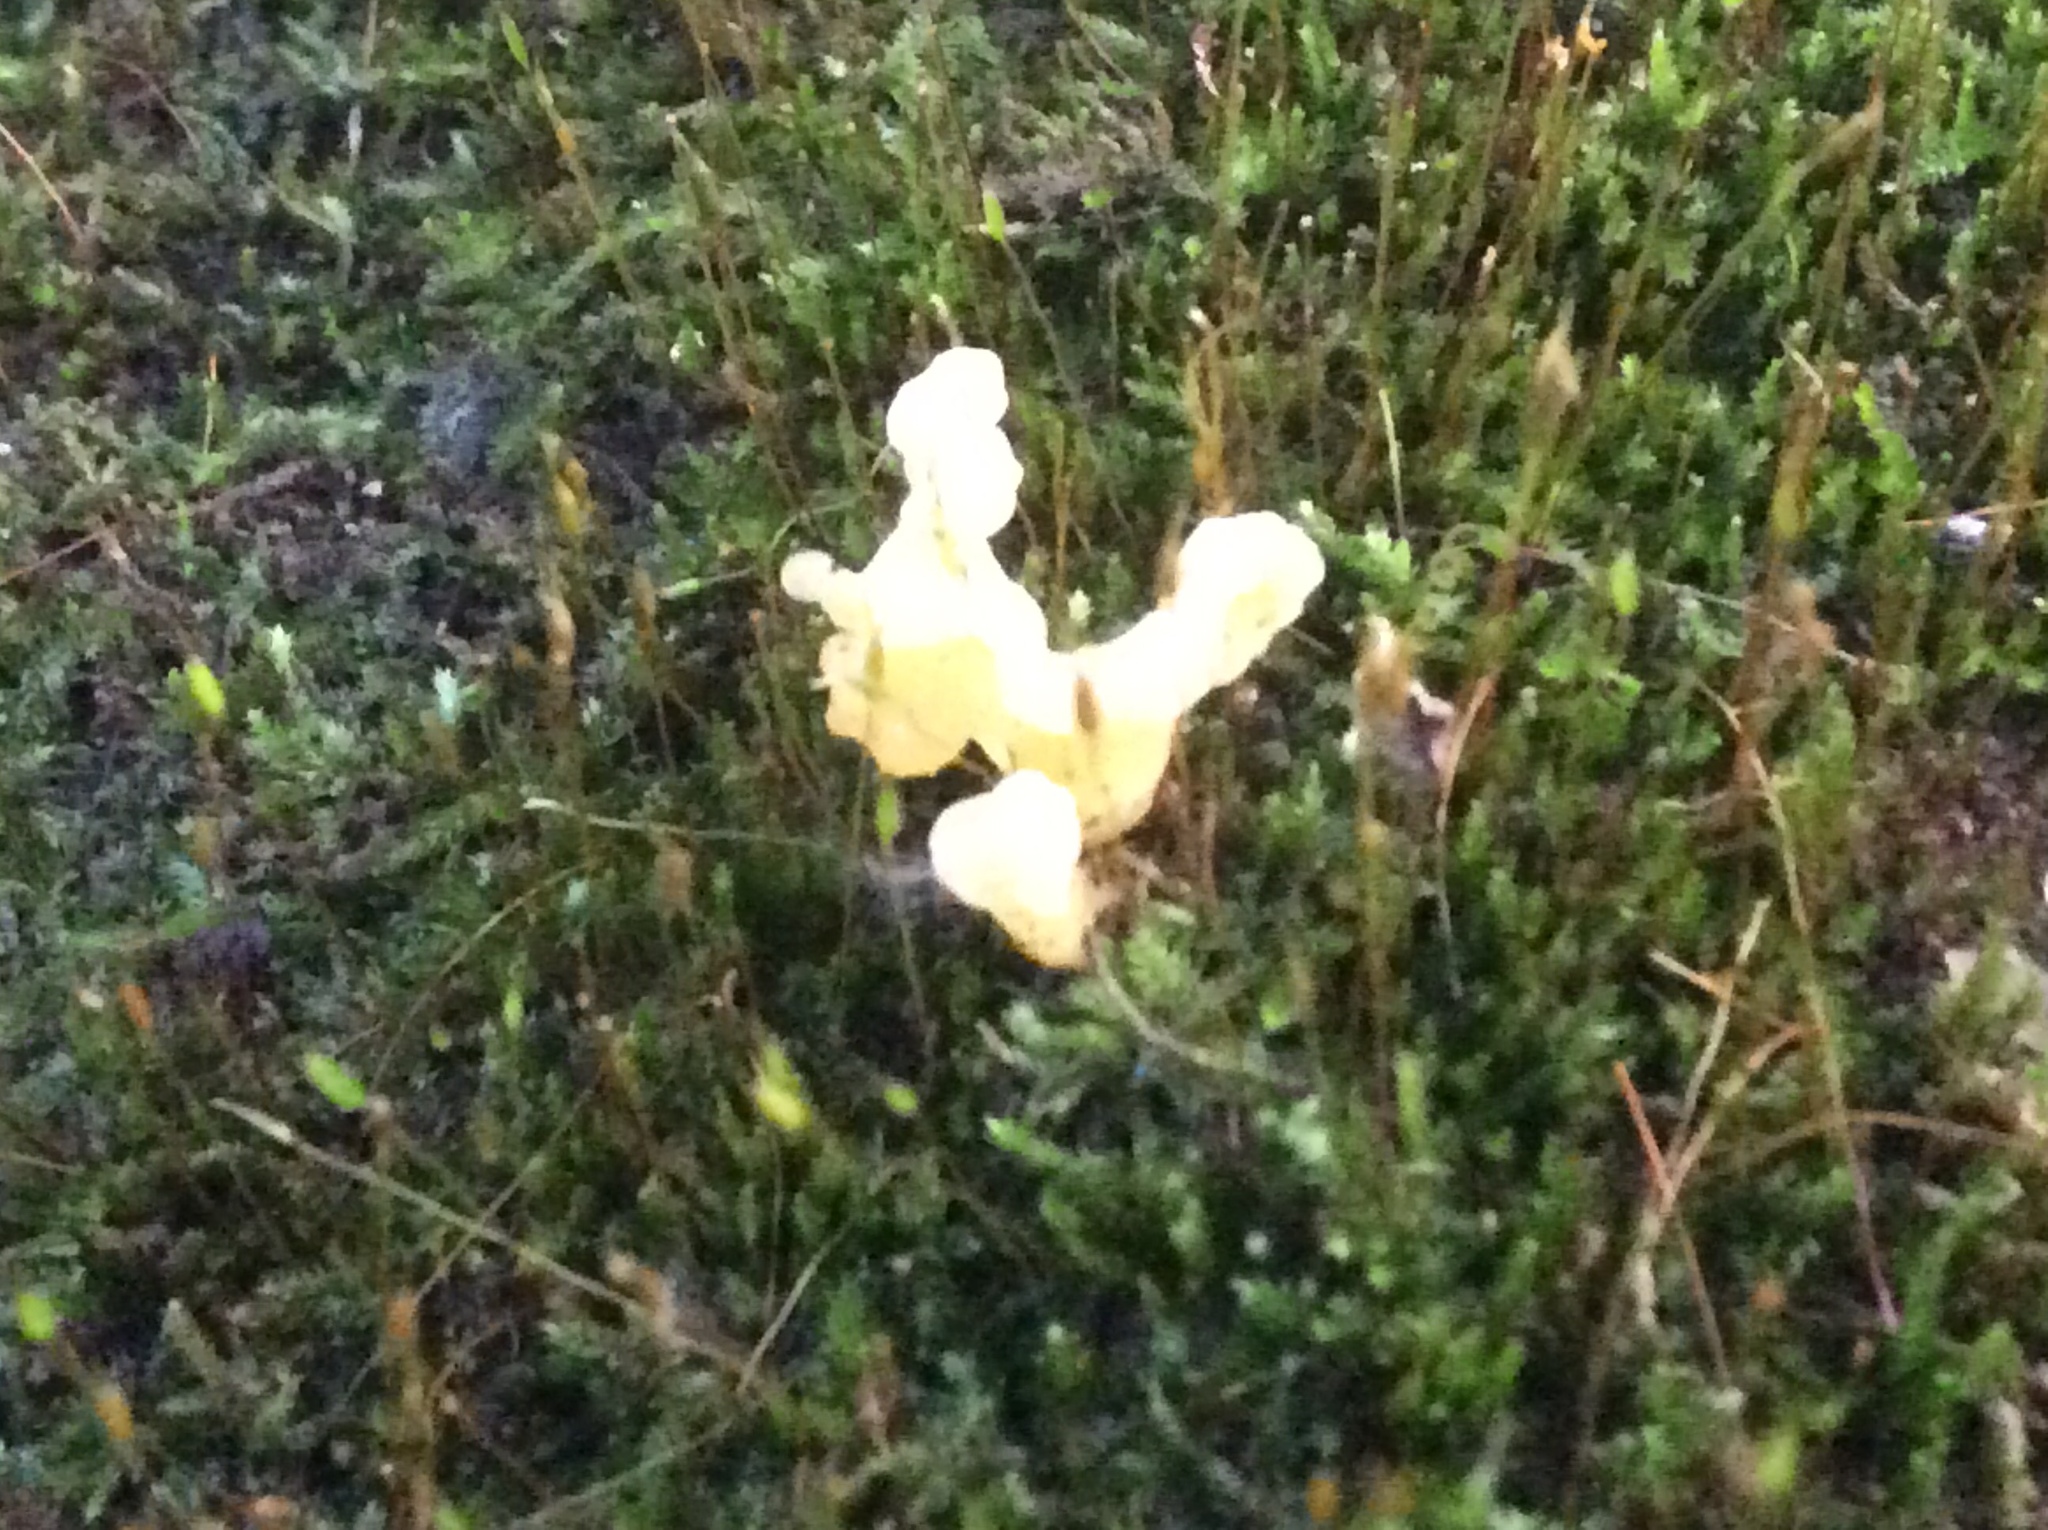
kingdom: Fungi
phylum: Basidiomycota
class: Dacrymycetes
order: Dacrymycetales
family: Dacrymycetaceae
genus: Dacrymyces
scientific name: Dacrymyces spathularius
